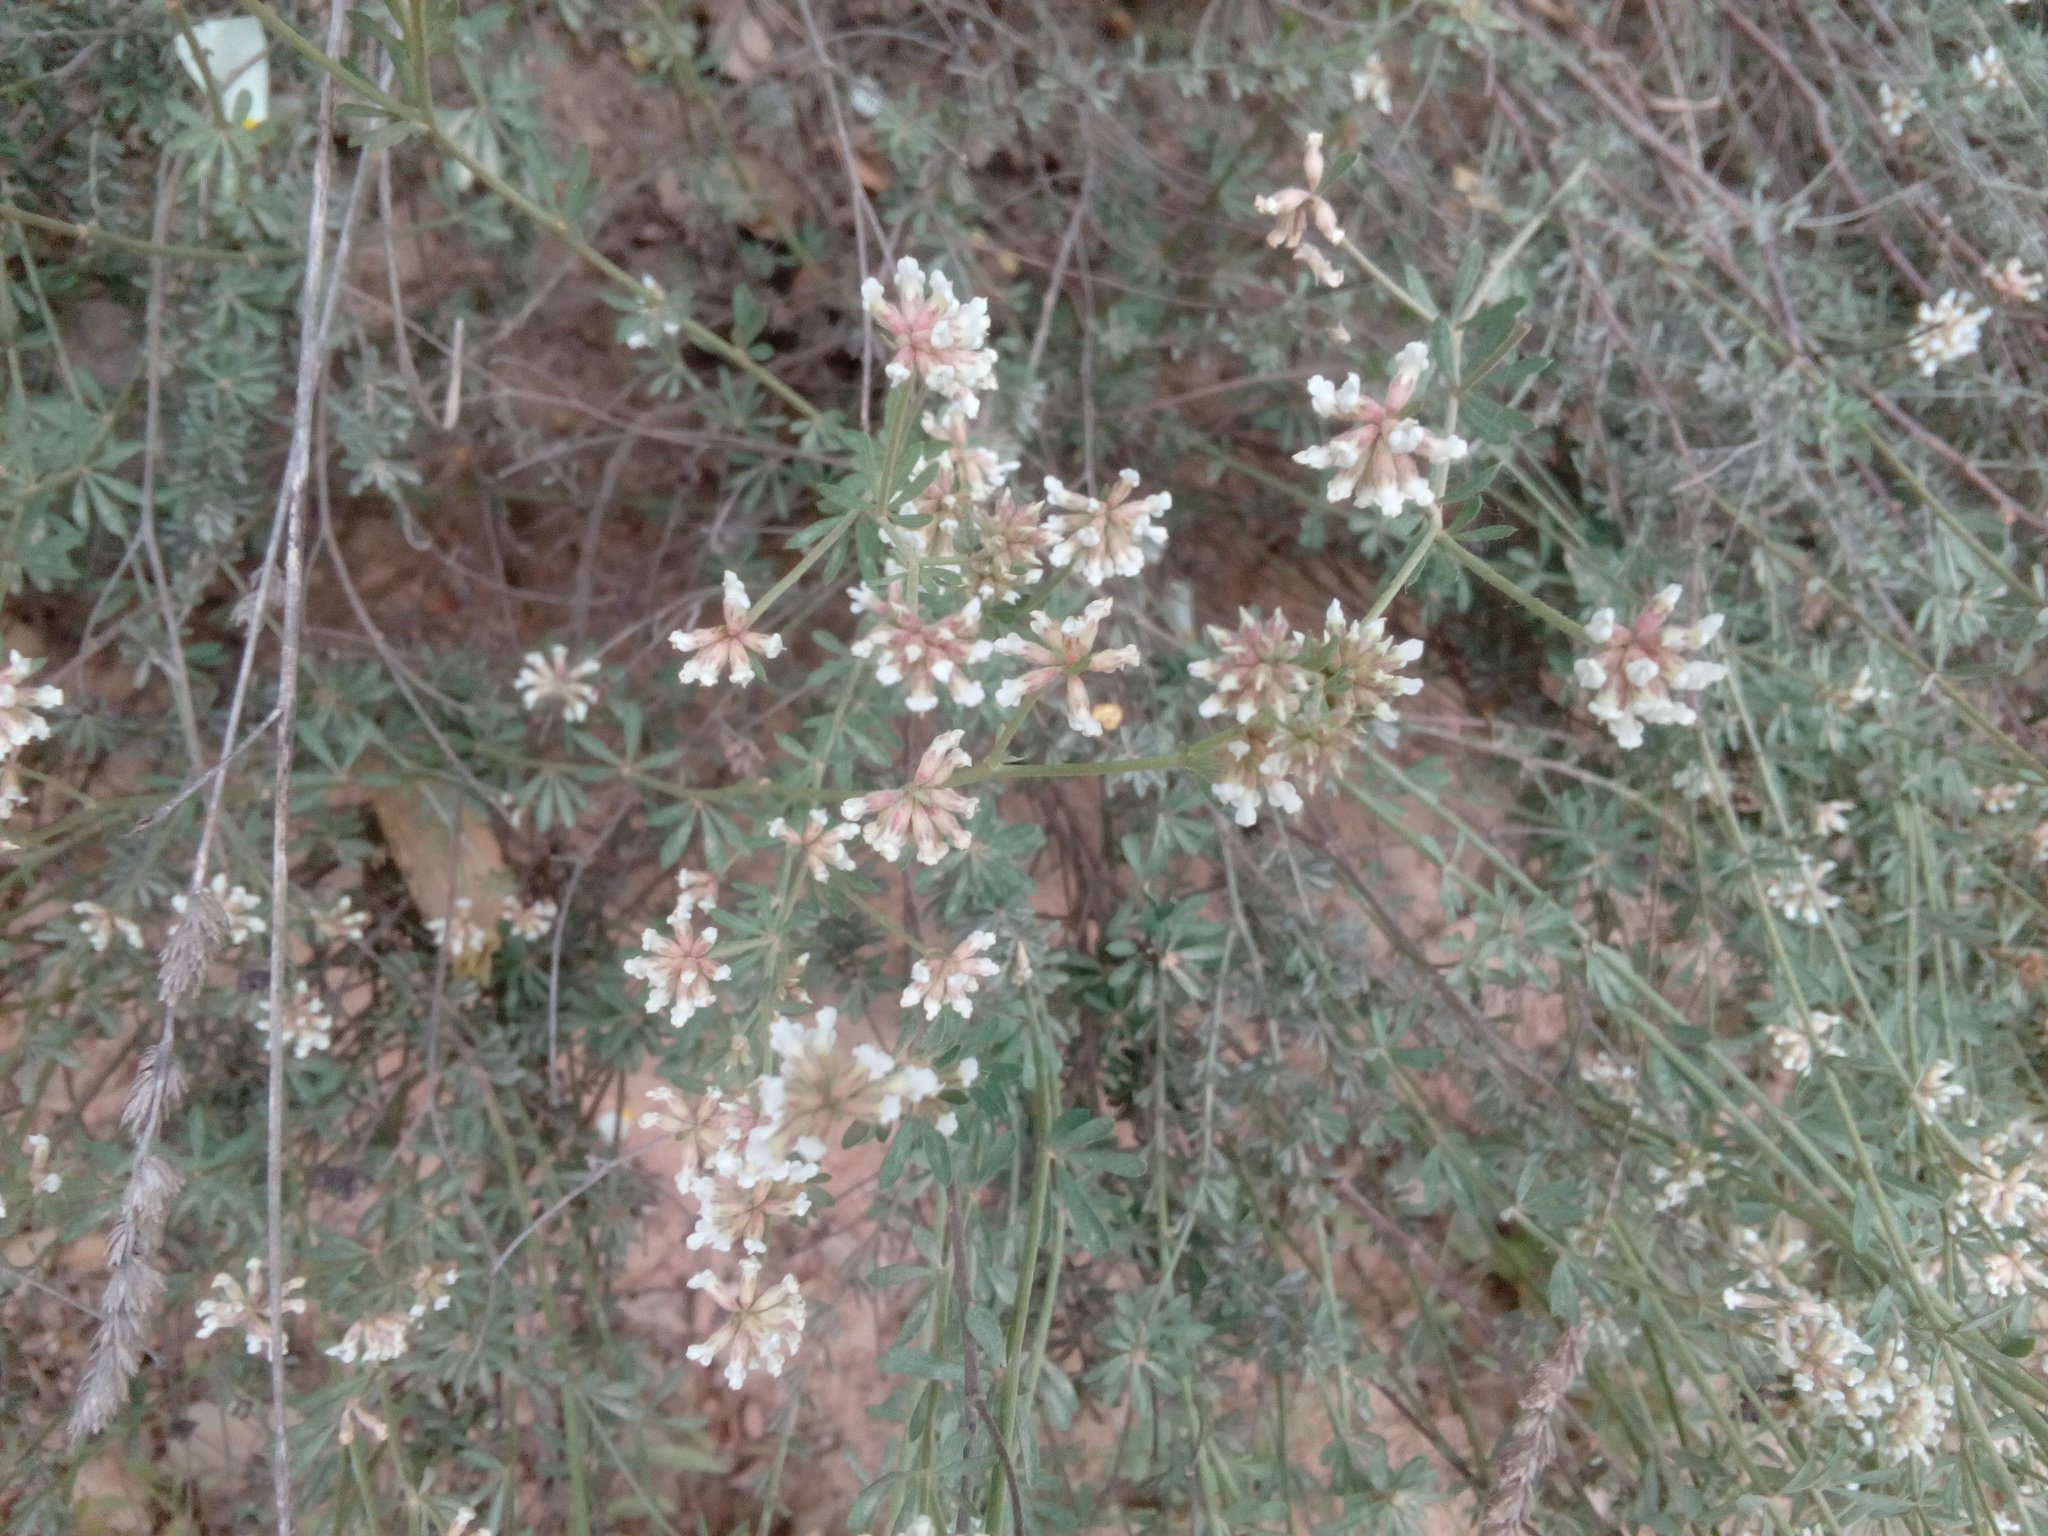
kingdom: Plantae
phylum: Tracheophyta
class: Magnoliopsida
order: Fabales
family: Fabaceae
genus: Lotus
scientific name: Lotus dorycnium
